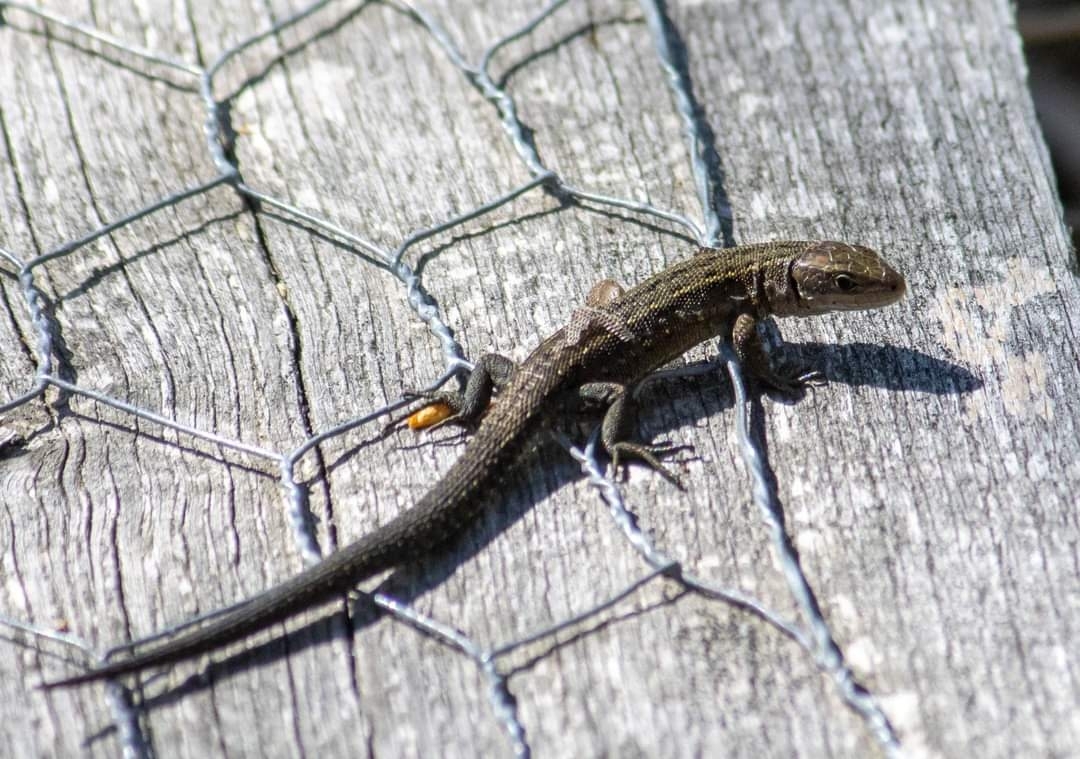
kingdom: Animalia
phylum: Chordata
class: Squamata
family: Lacertidae
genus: Zootoca
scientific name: Zootoca vivipara
